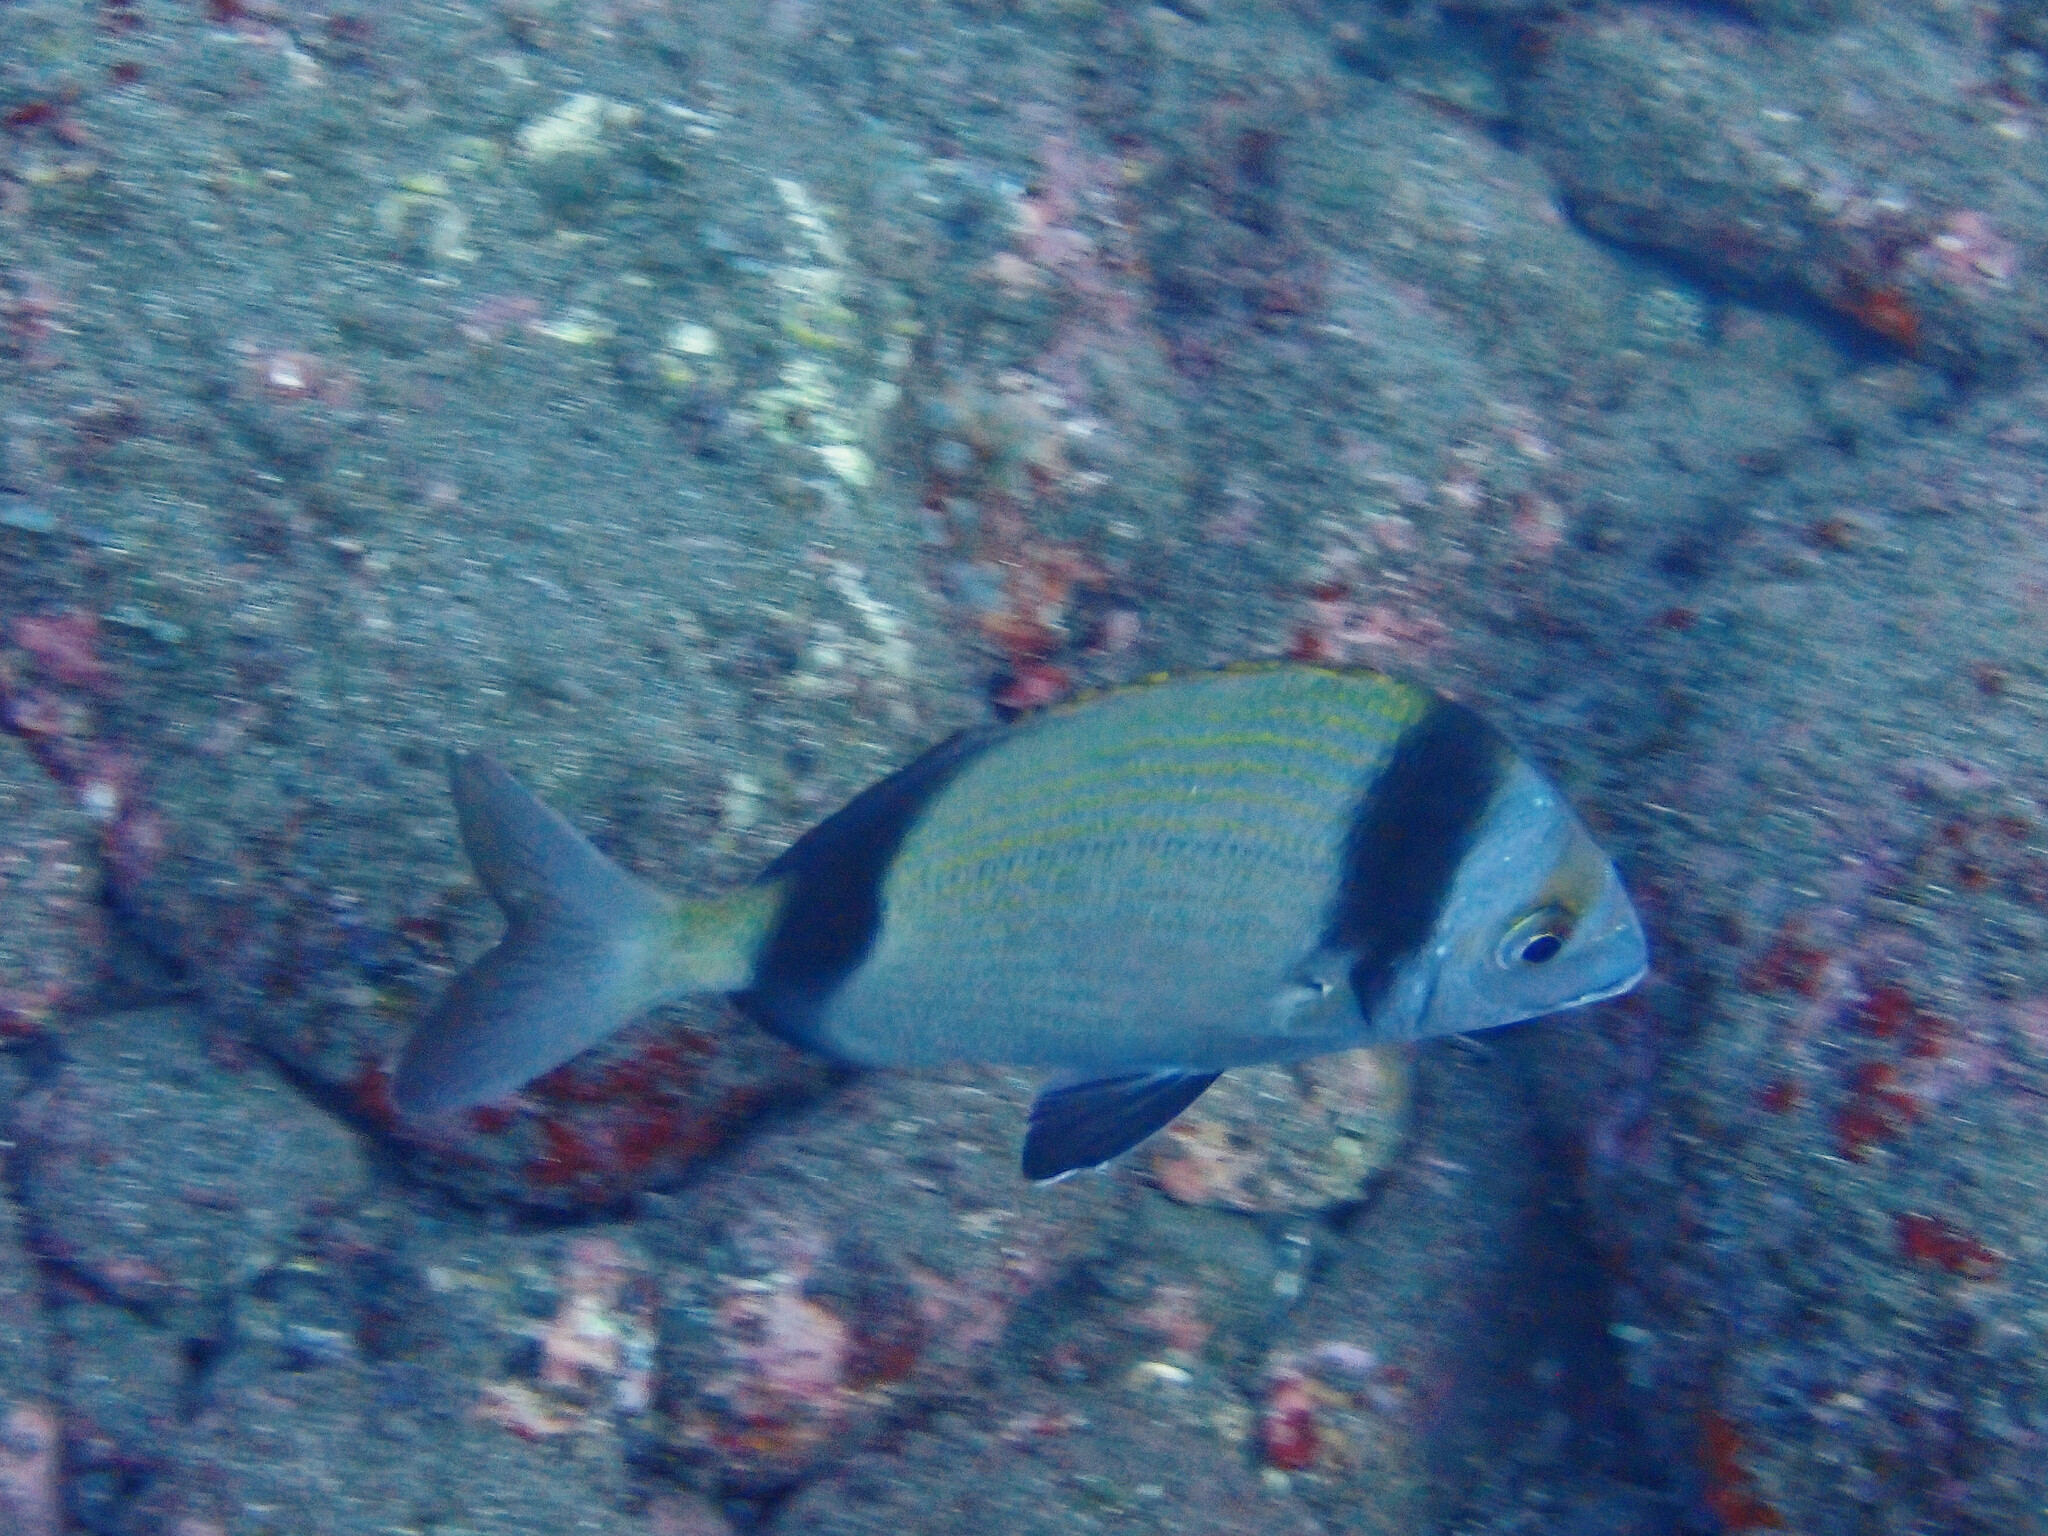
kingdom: Animalia
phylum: Chordata
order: Perciformes
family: Sparidae
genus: Diplodus
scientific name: Diplodus vulgaris
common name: Common two-banded seabream
